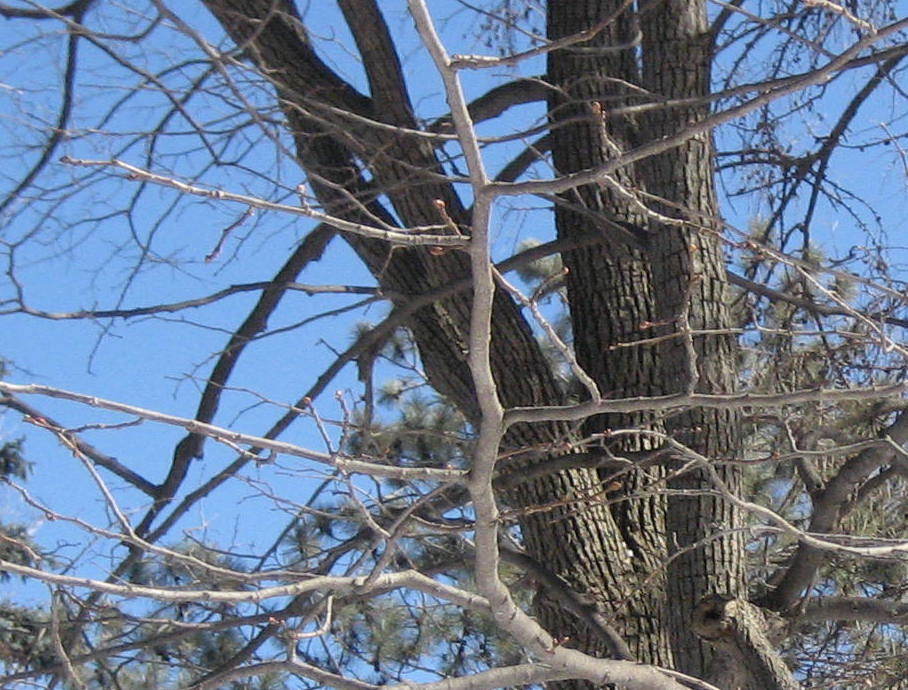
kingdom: Plantae
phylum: Tracheophyta
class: Magnoliopsida
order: Malvales
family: Malvaceae
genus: Tilia
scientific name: Tilia americana
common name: Basswood
